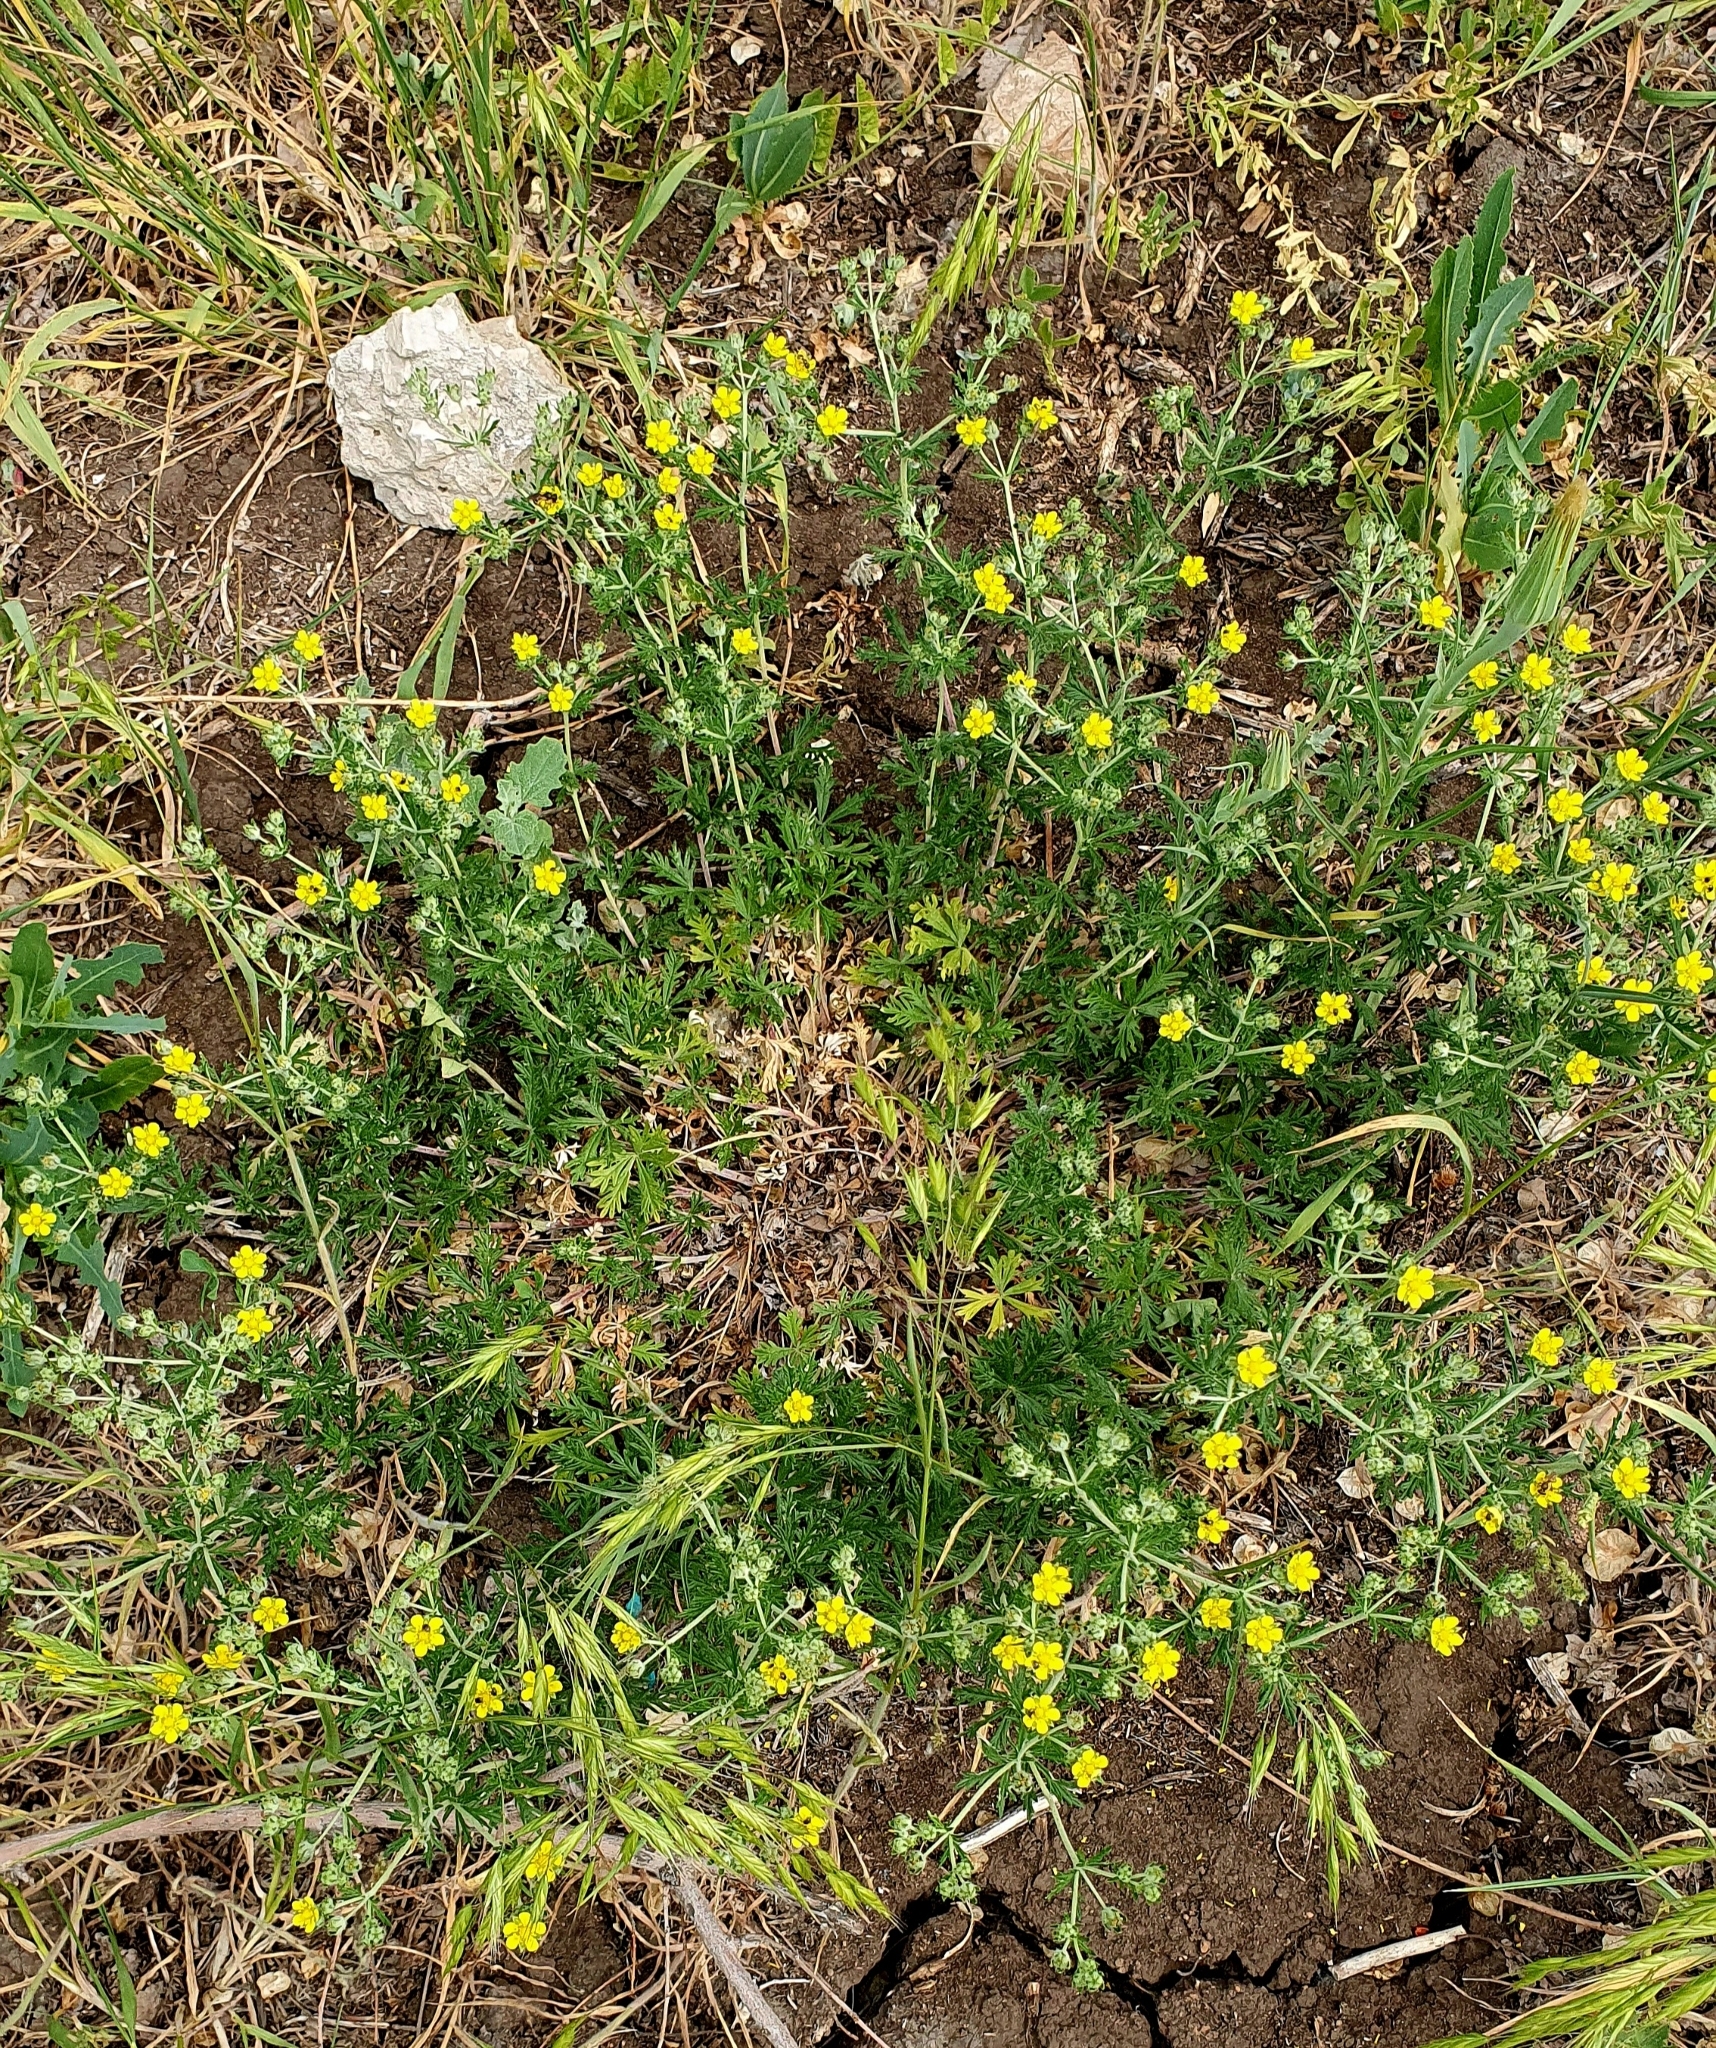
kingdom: Plantae
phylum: Tracheophyta
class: Magnoliopsida
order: Rosales
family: Rosaceae
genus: Potentilla
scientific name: Potentilla argentea
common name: Hoary cinquefoil
